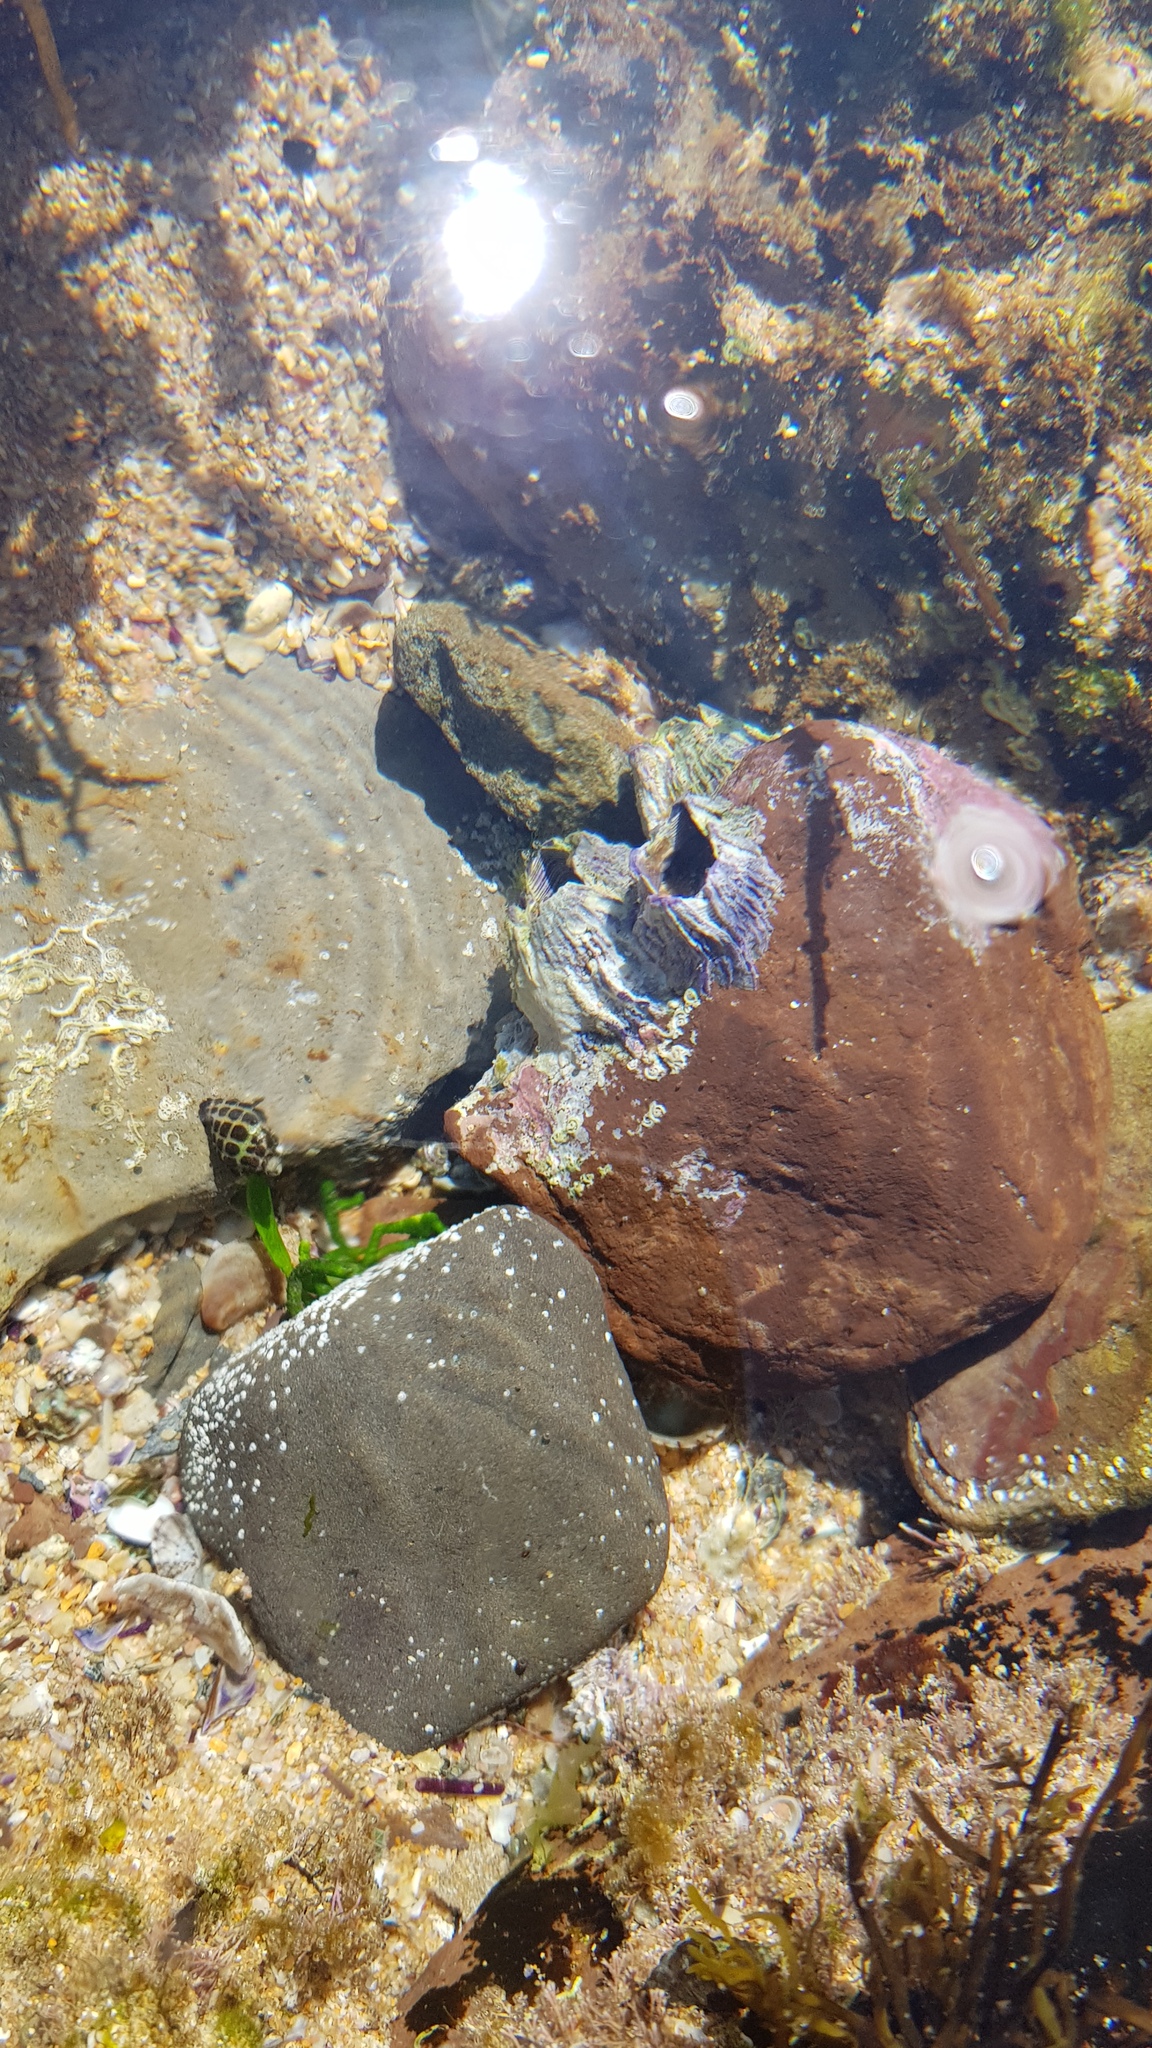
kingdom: Animalia
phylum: Arthropoda
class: Maxillopoda
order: Sessilia
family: Austrobalanidae
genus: Austrobalanus
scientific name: Austrobalanus imperator
